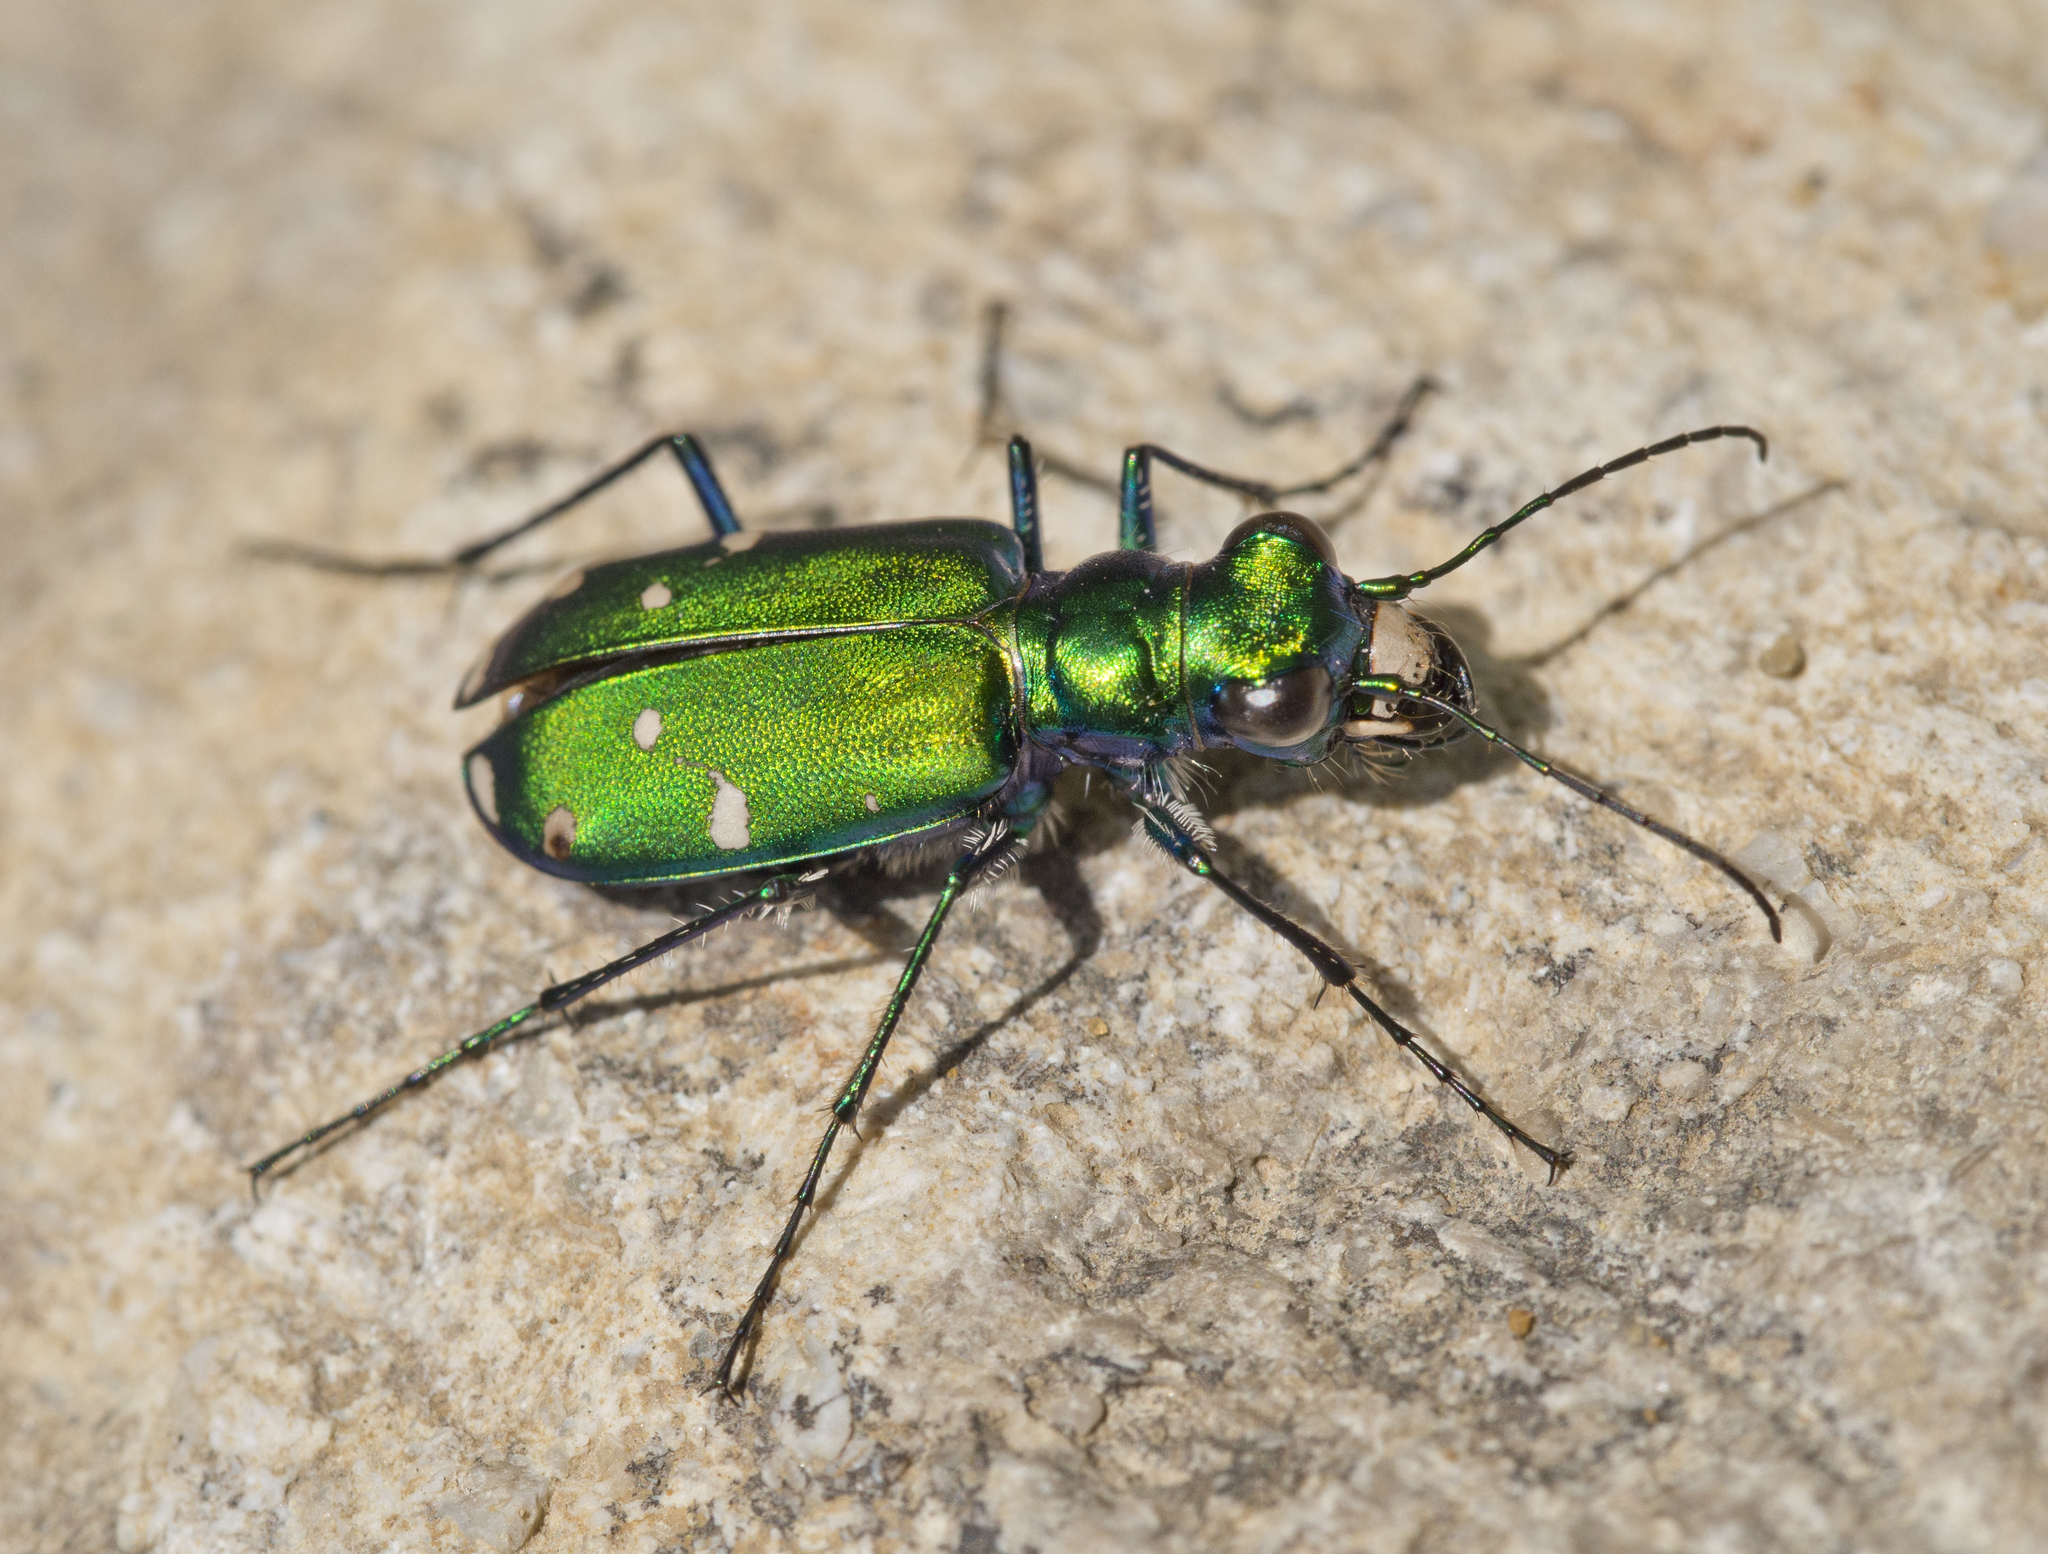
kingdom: Animalia
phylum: Arthropoda
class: Insecta
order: Coleoptera
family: Carabidae
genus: Cicindela
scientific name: Cicindela sexguttata
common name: Six-spotted tiger beetle
